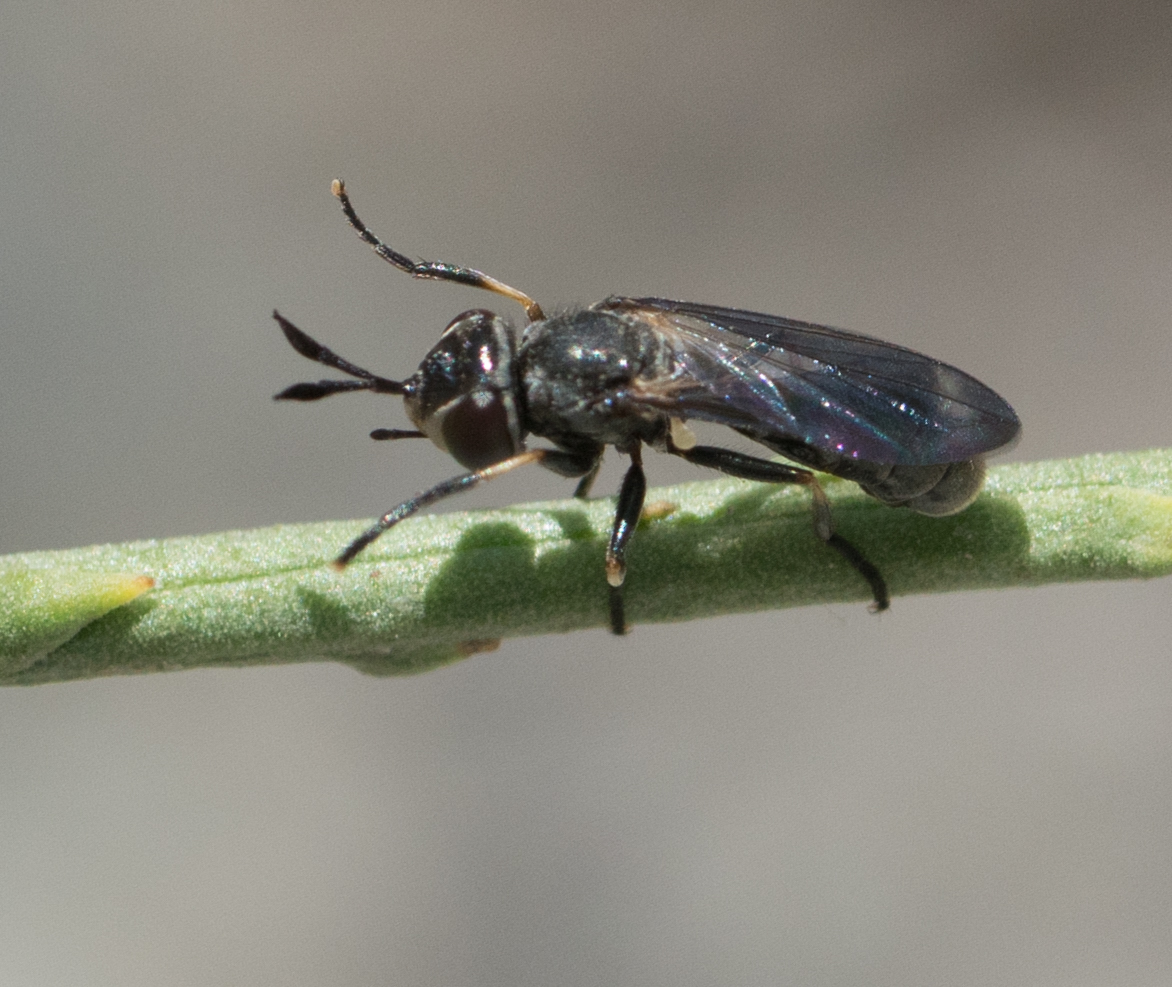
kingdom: Animalia
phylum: Arthropoda
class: Insecta
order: Diptera
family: Conopidae
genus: Gyroconops
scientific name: Gyroconops sylvosus
